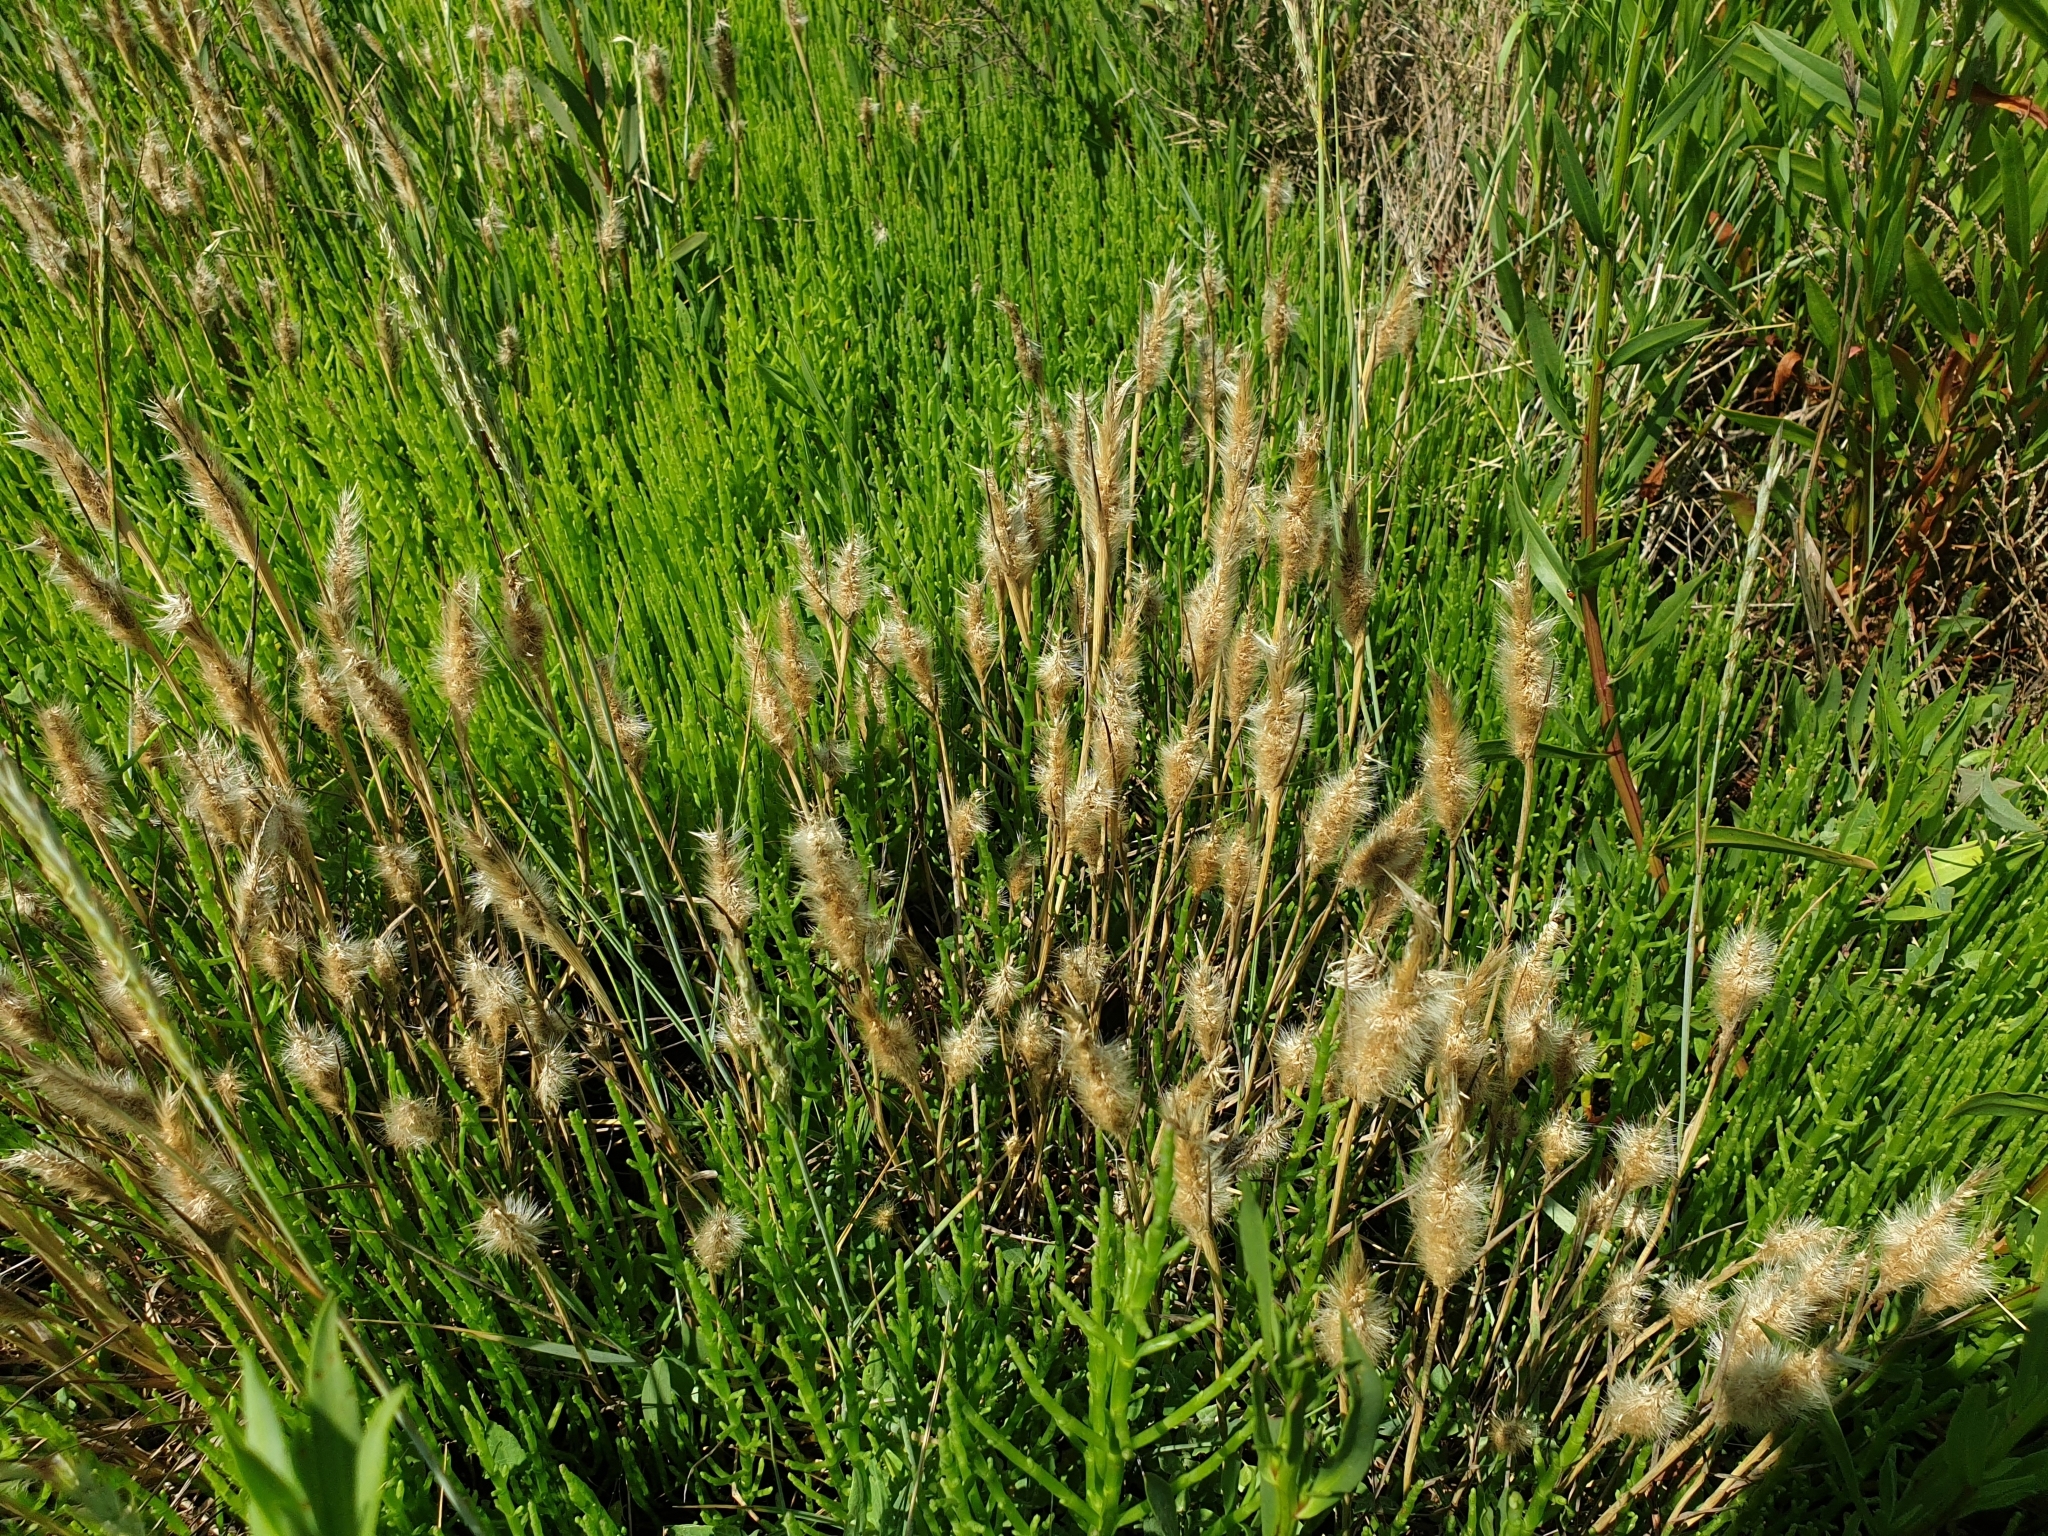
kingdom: Plantae
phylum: Tracheophyta
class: Liliopsida
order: Poales
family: Poaceae
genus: Polypogon
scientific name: Polypogon monspeliensis
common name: Annual rabbitsfoot grass
